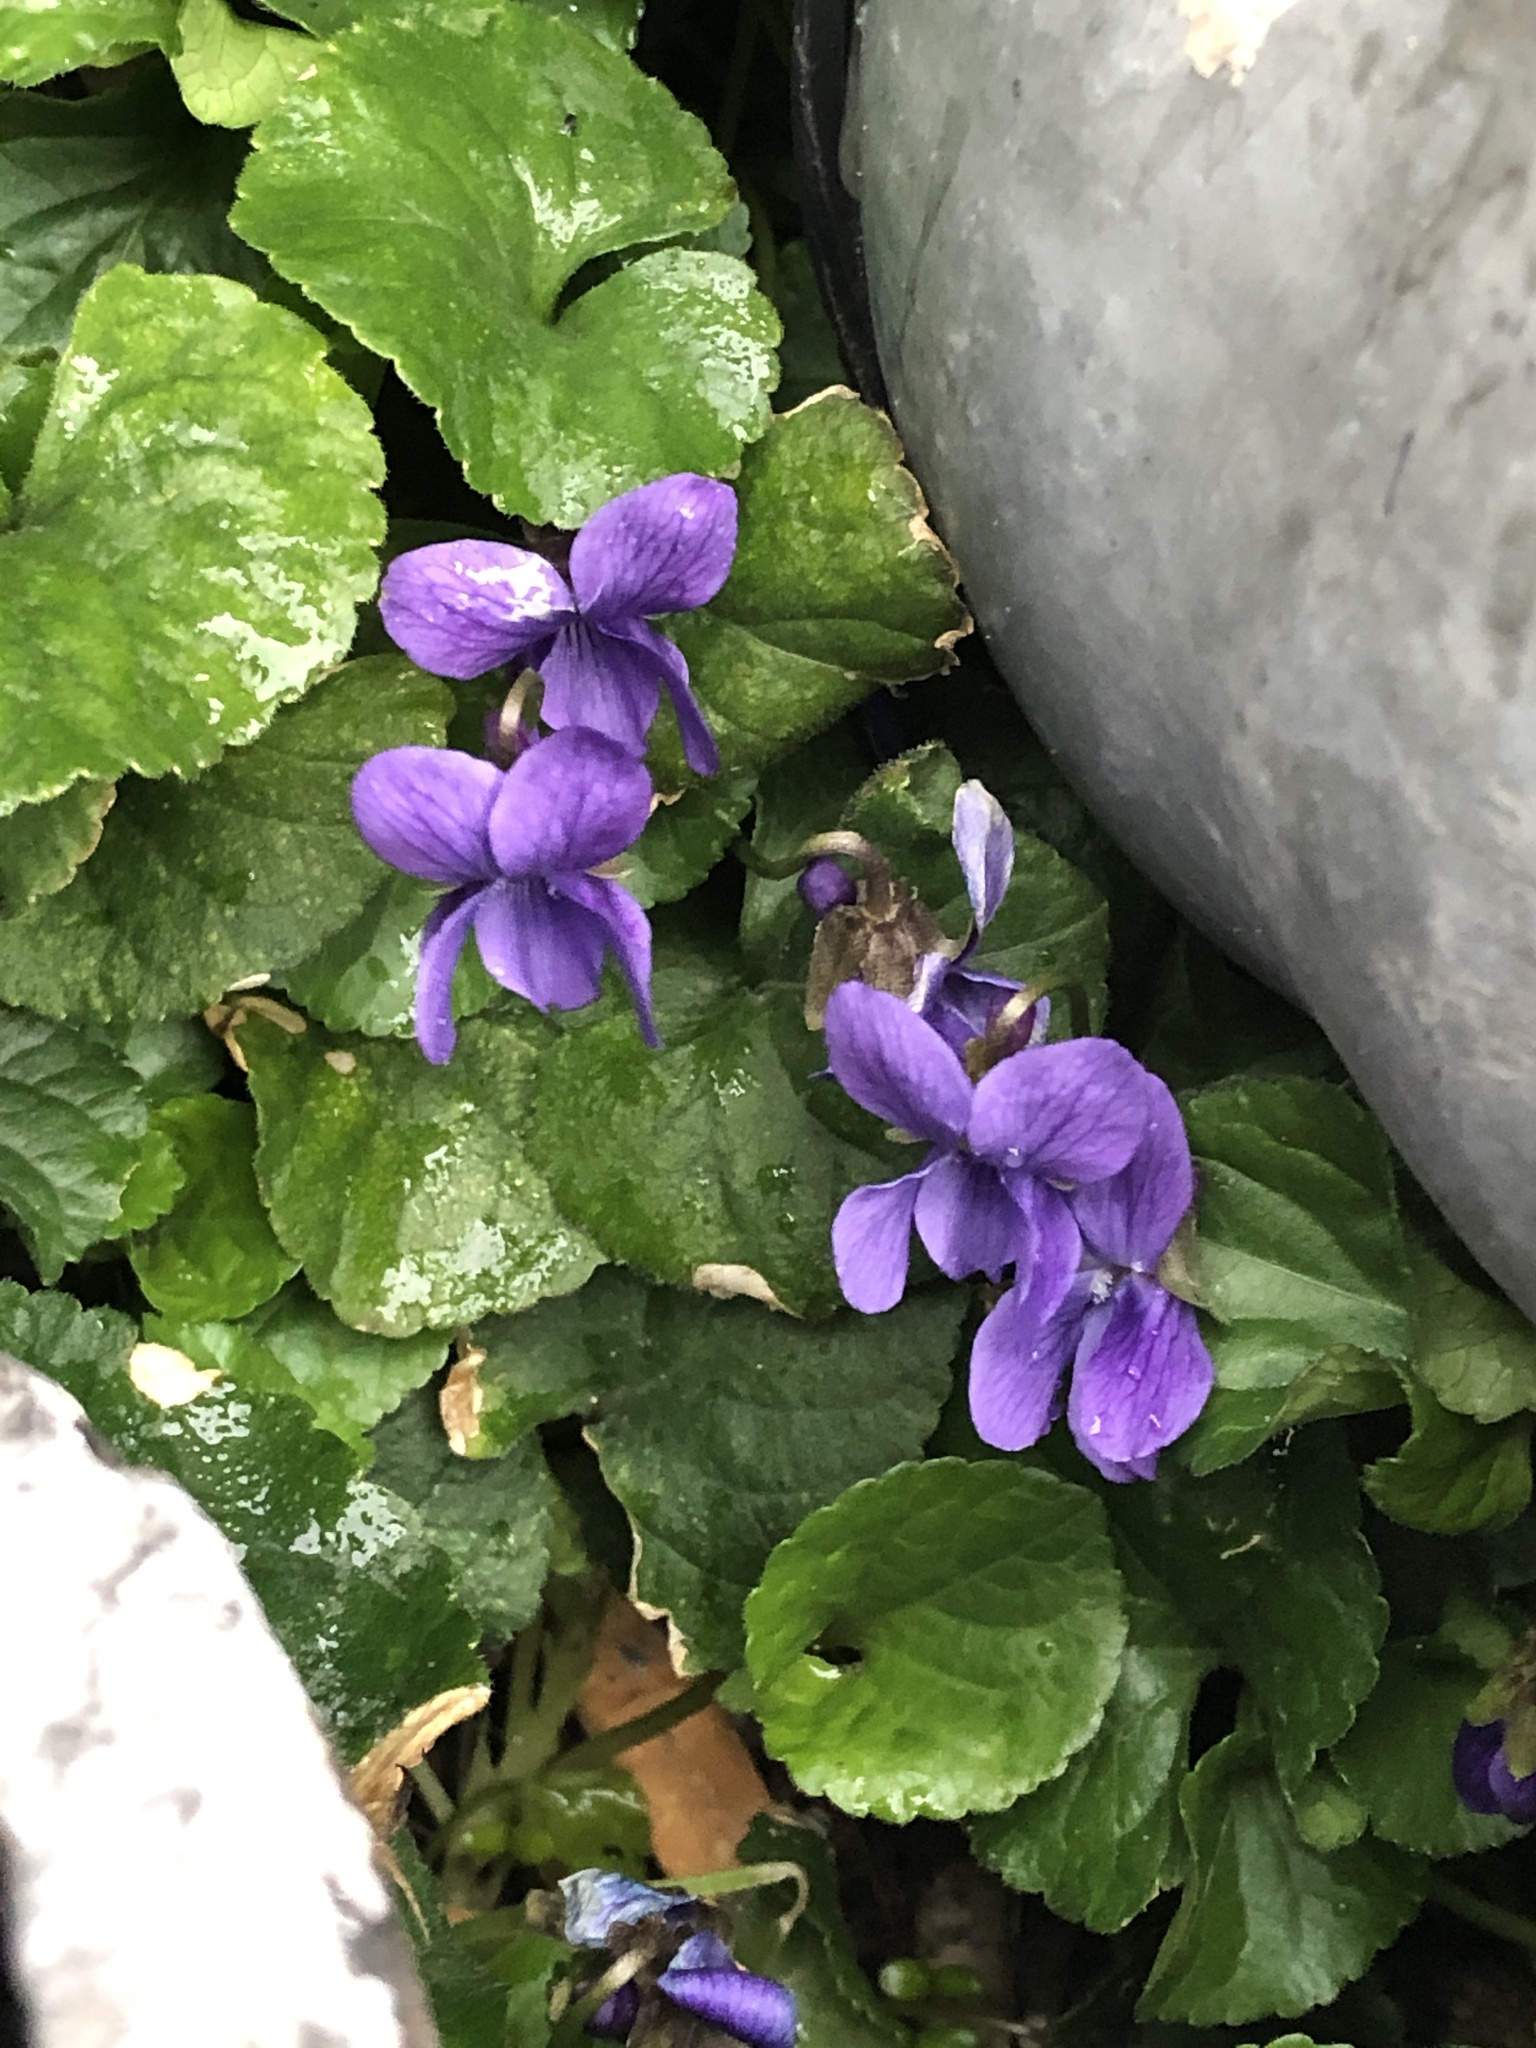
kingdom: Plantae
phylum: Tracheophyta
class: Magnoliopsida
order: Malpighiales
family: Violaceae
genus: Viola
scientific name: Viola odorata
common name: Sweet violet
